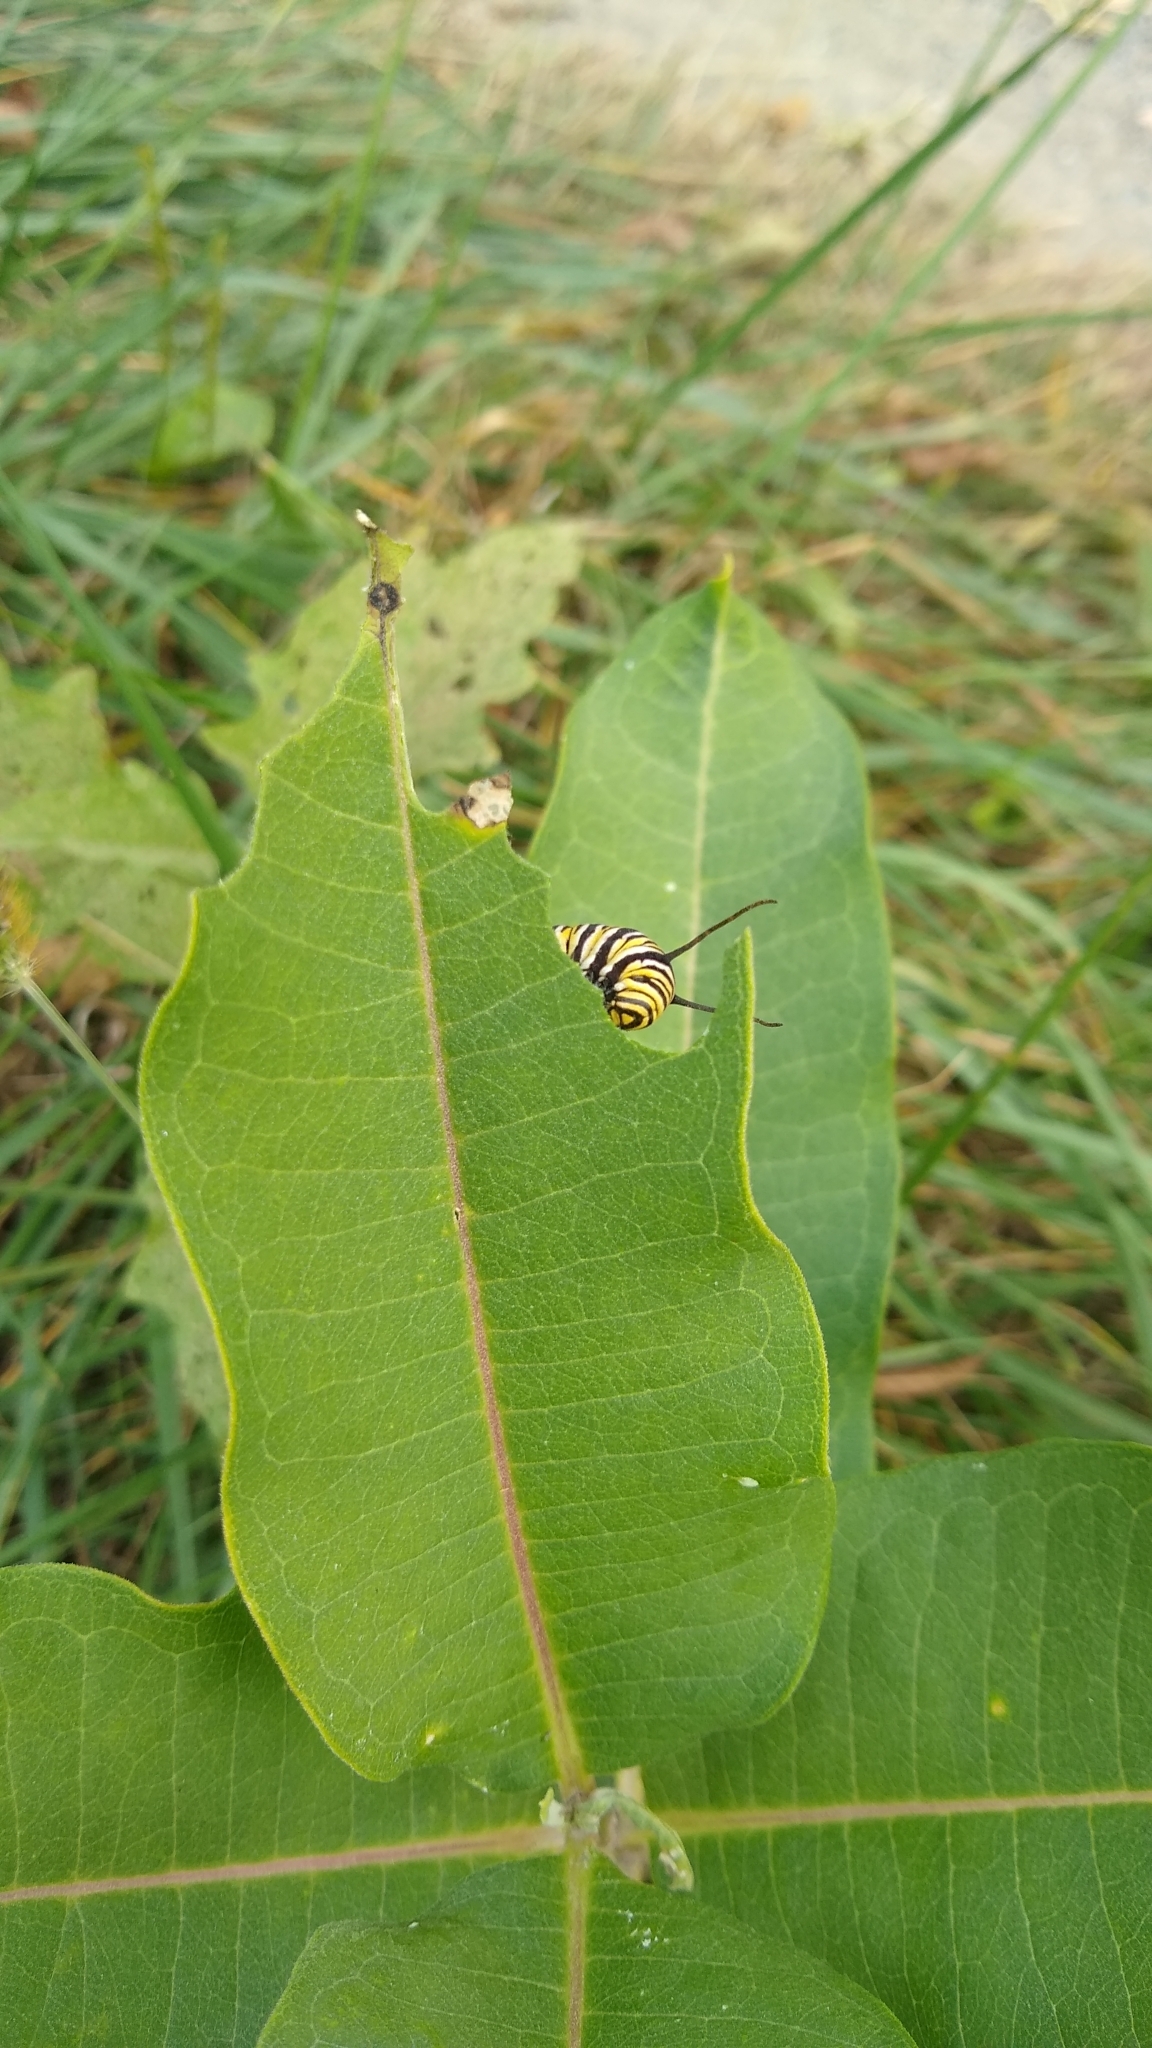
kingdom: Animalia
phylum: Arthropoda
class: Insecta
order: Lepidoptera
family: Nymphalidae
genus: Danaus
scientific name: Danaus plexippus
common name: Monarch
